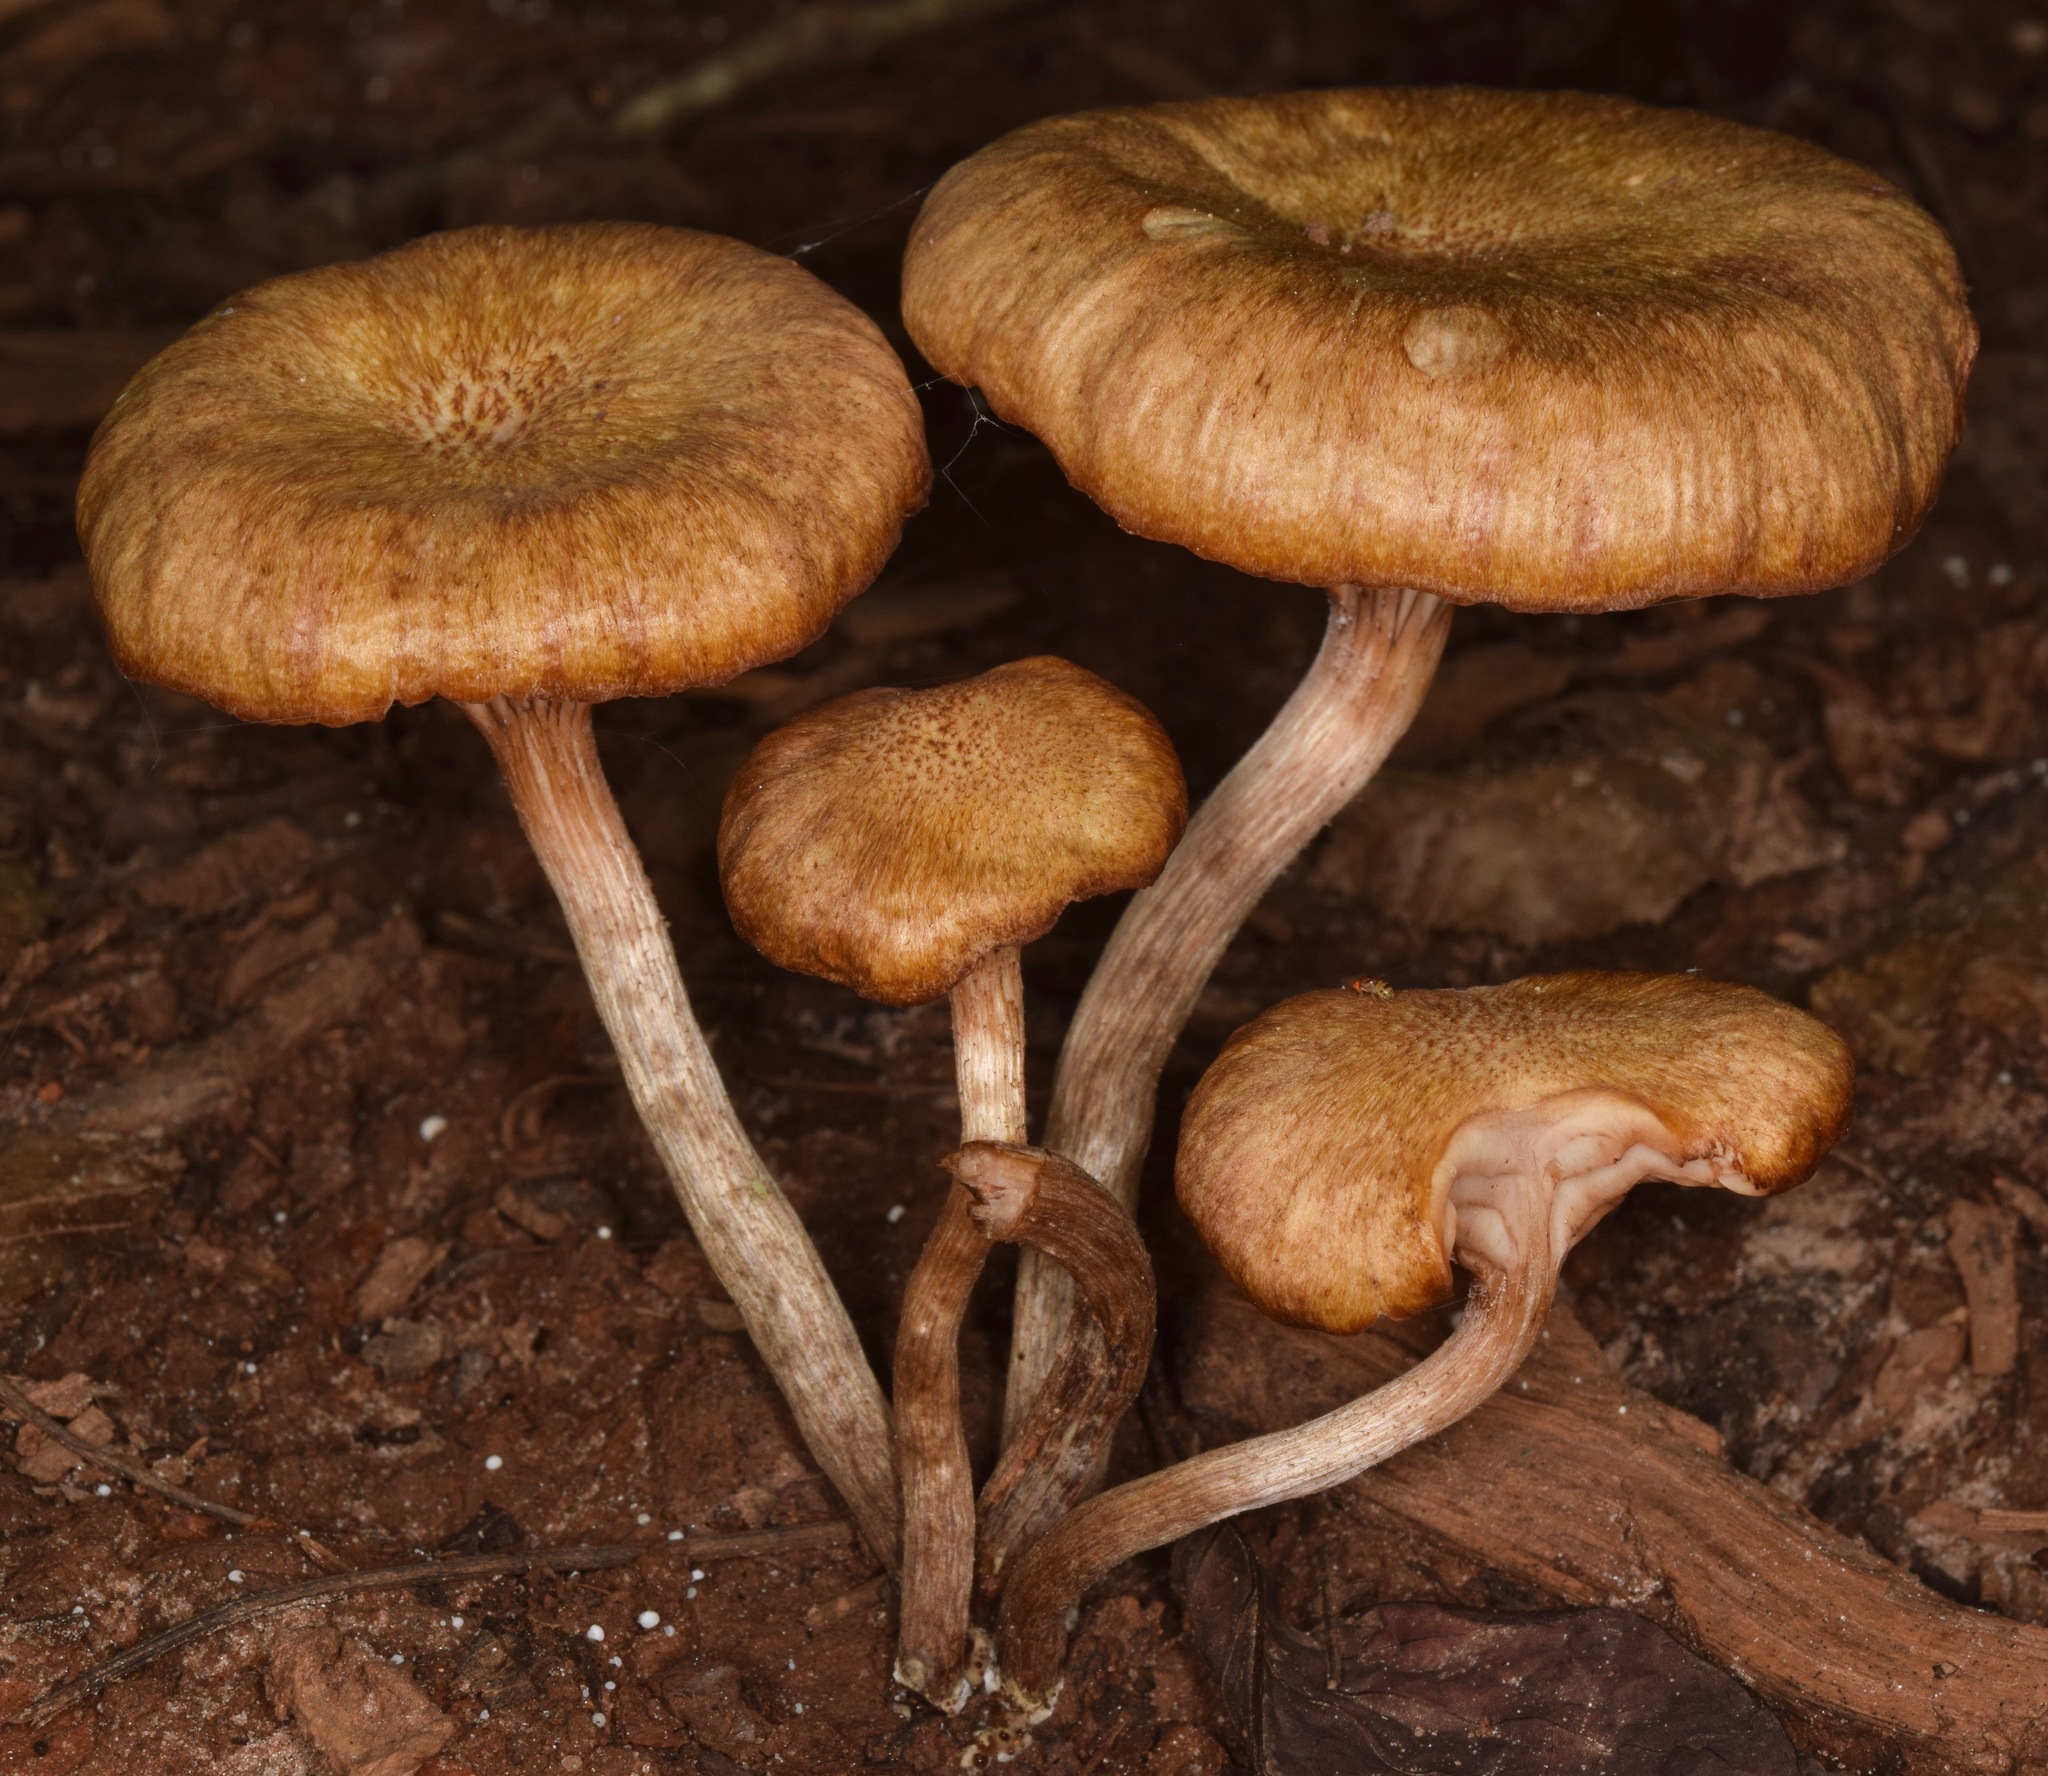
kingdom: Fungi
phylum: Basidiomycota
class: Agaricomycetes
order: Agaricales
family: Physalacriaceae
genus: Desarmillaria
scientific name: Desarmillaria caespitosa
